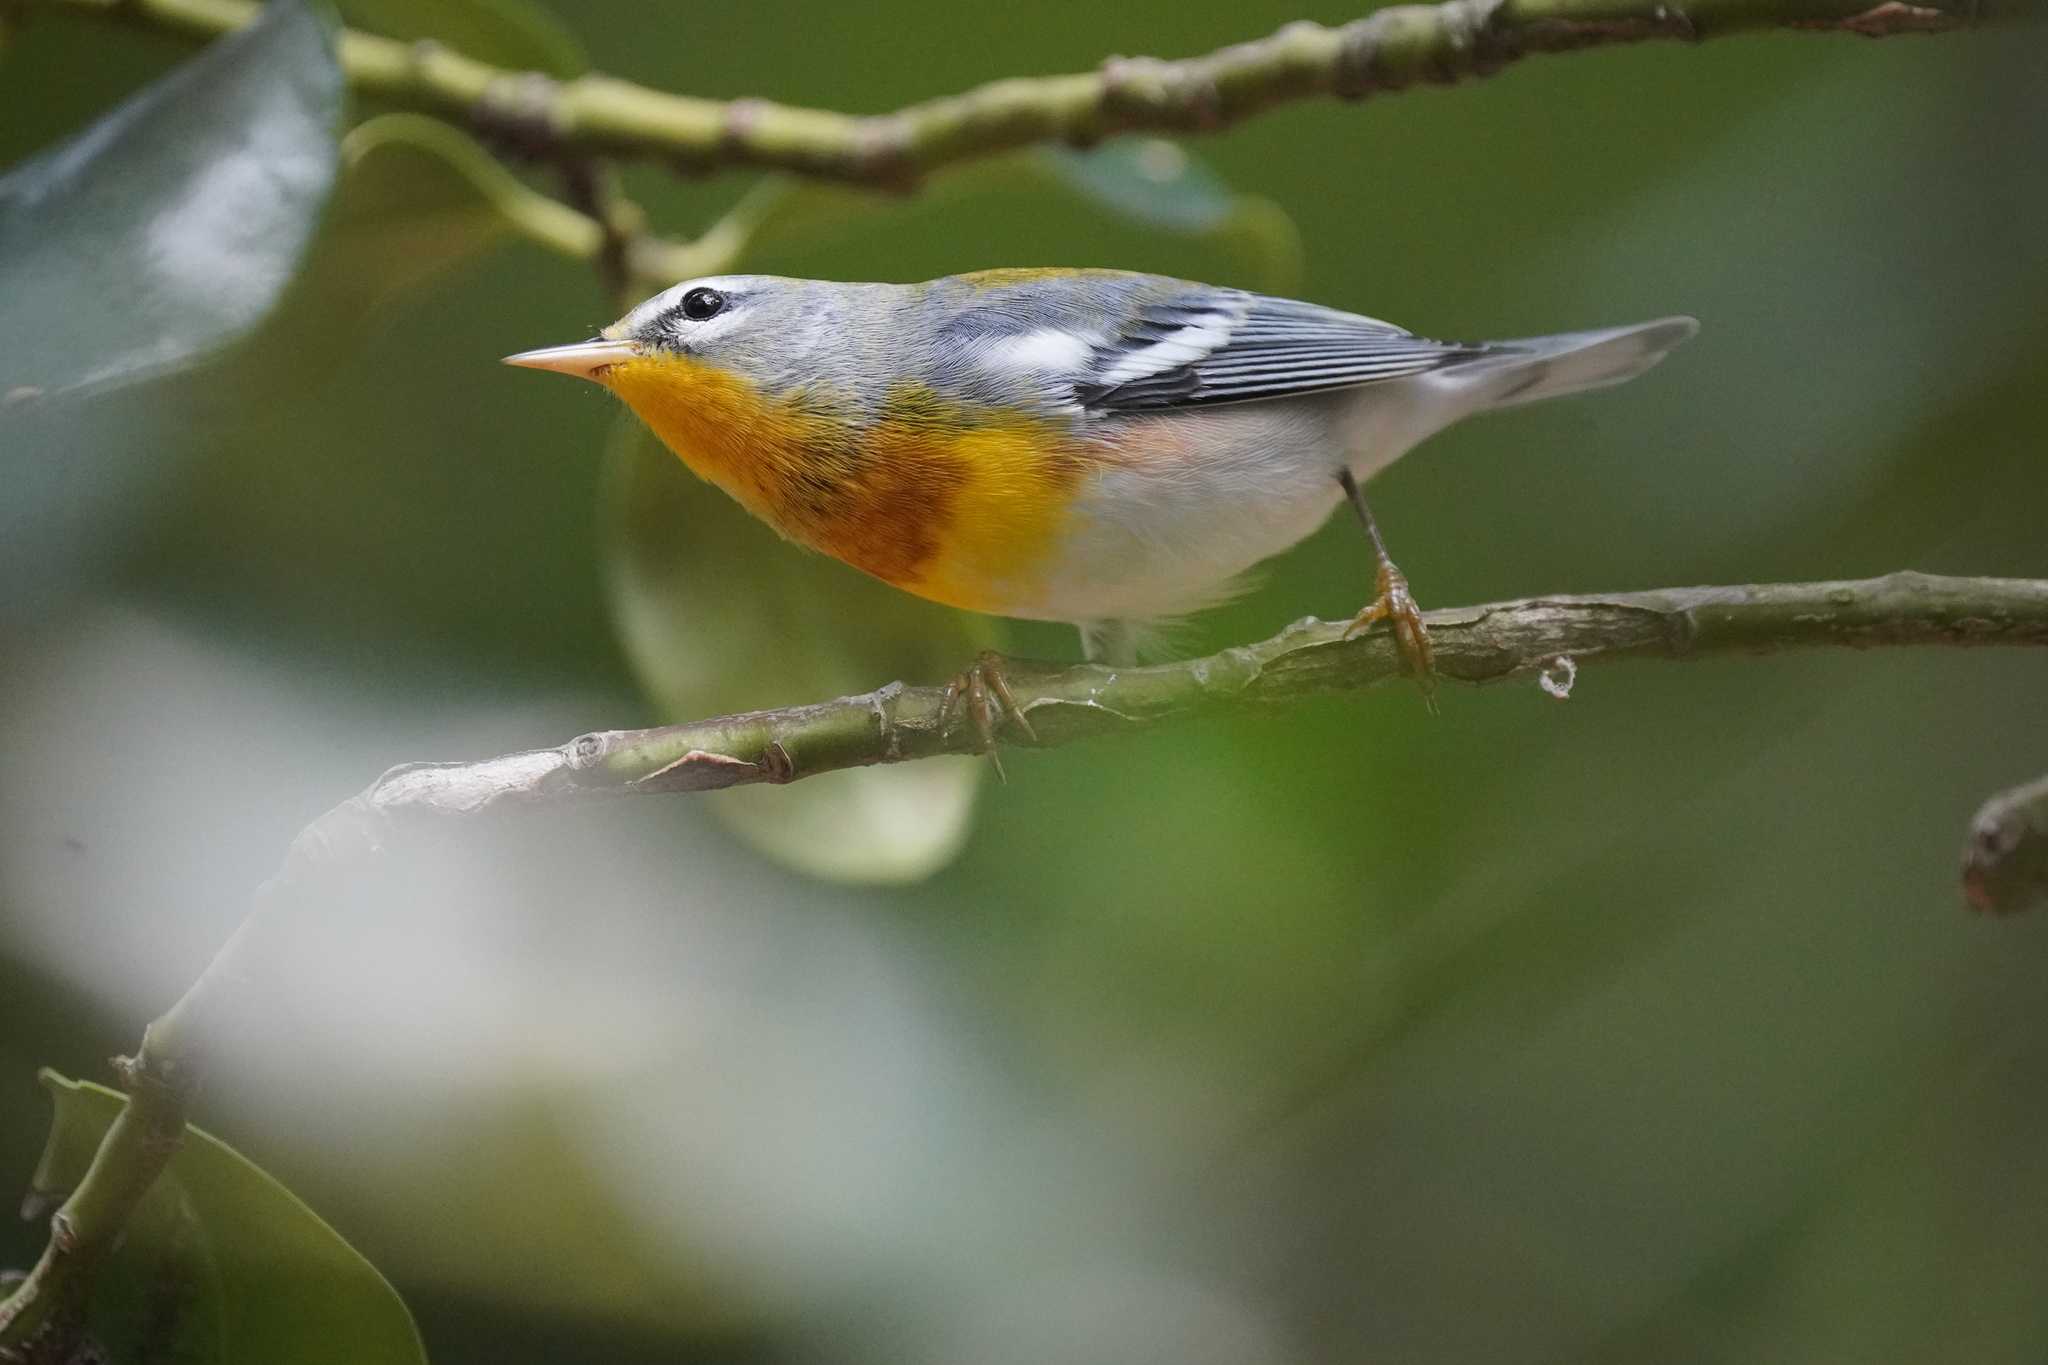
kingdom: Animalia
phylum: Chordata
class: Aves
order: Passeriformes
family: Parulidae
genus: Setophaga
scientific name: Setophaga americana
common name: Northern parula
